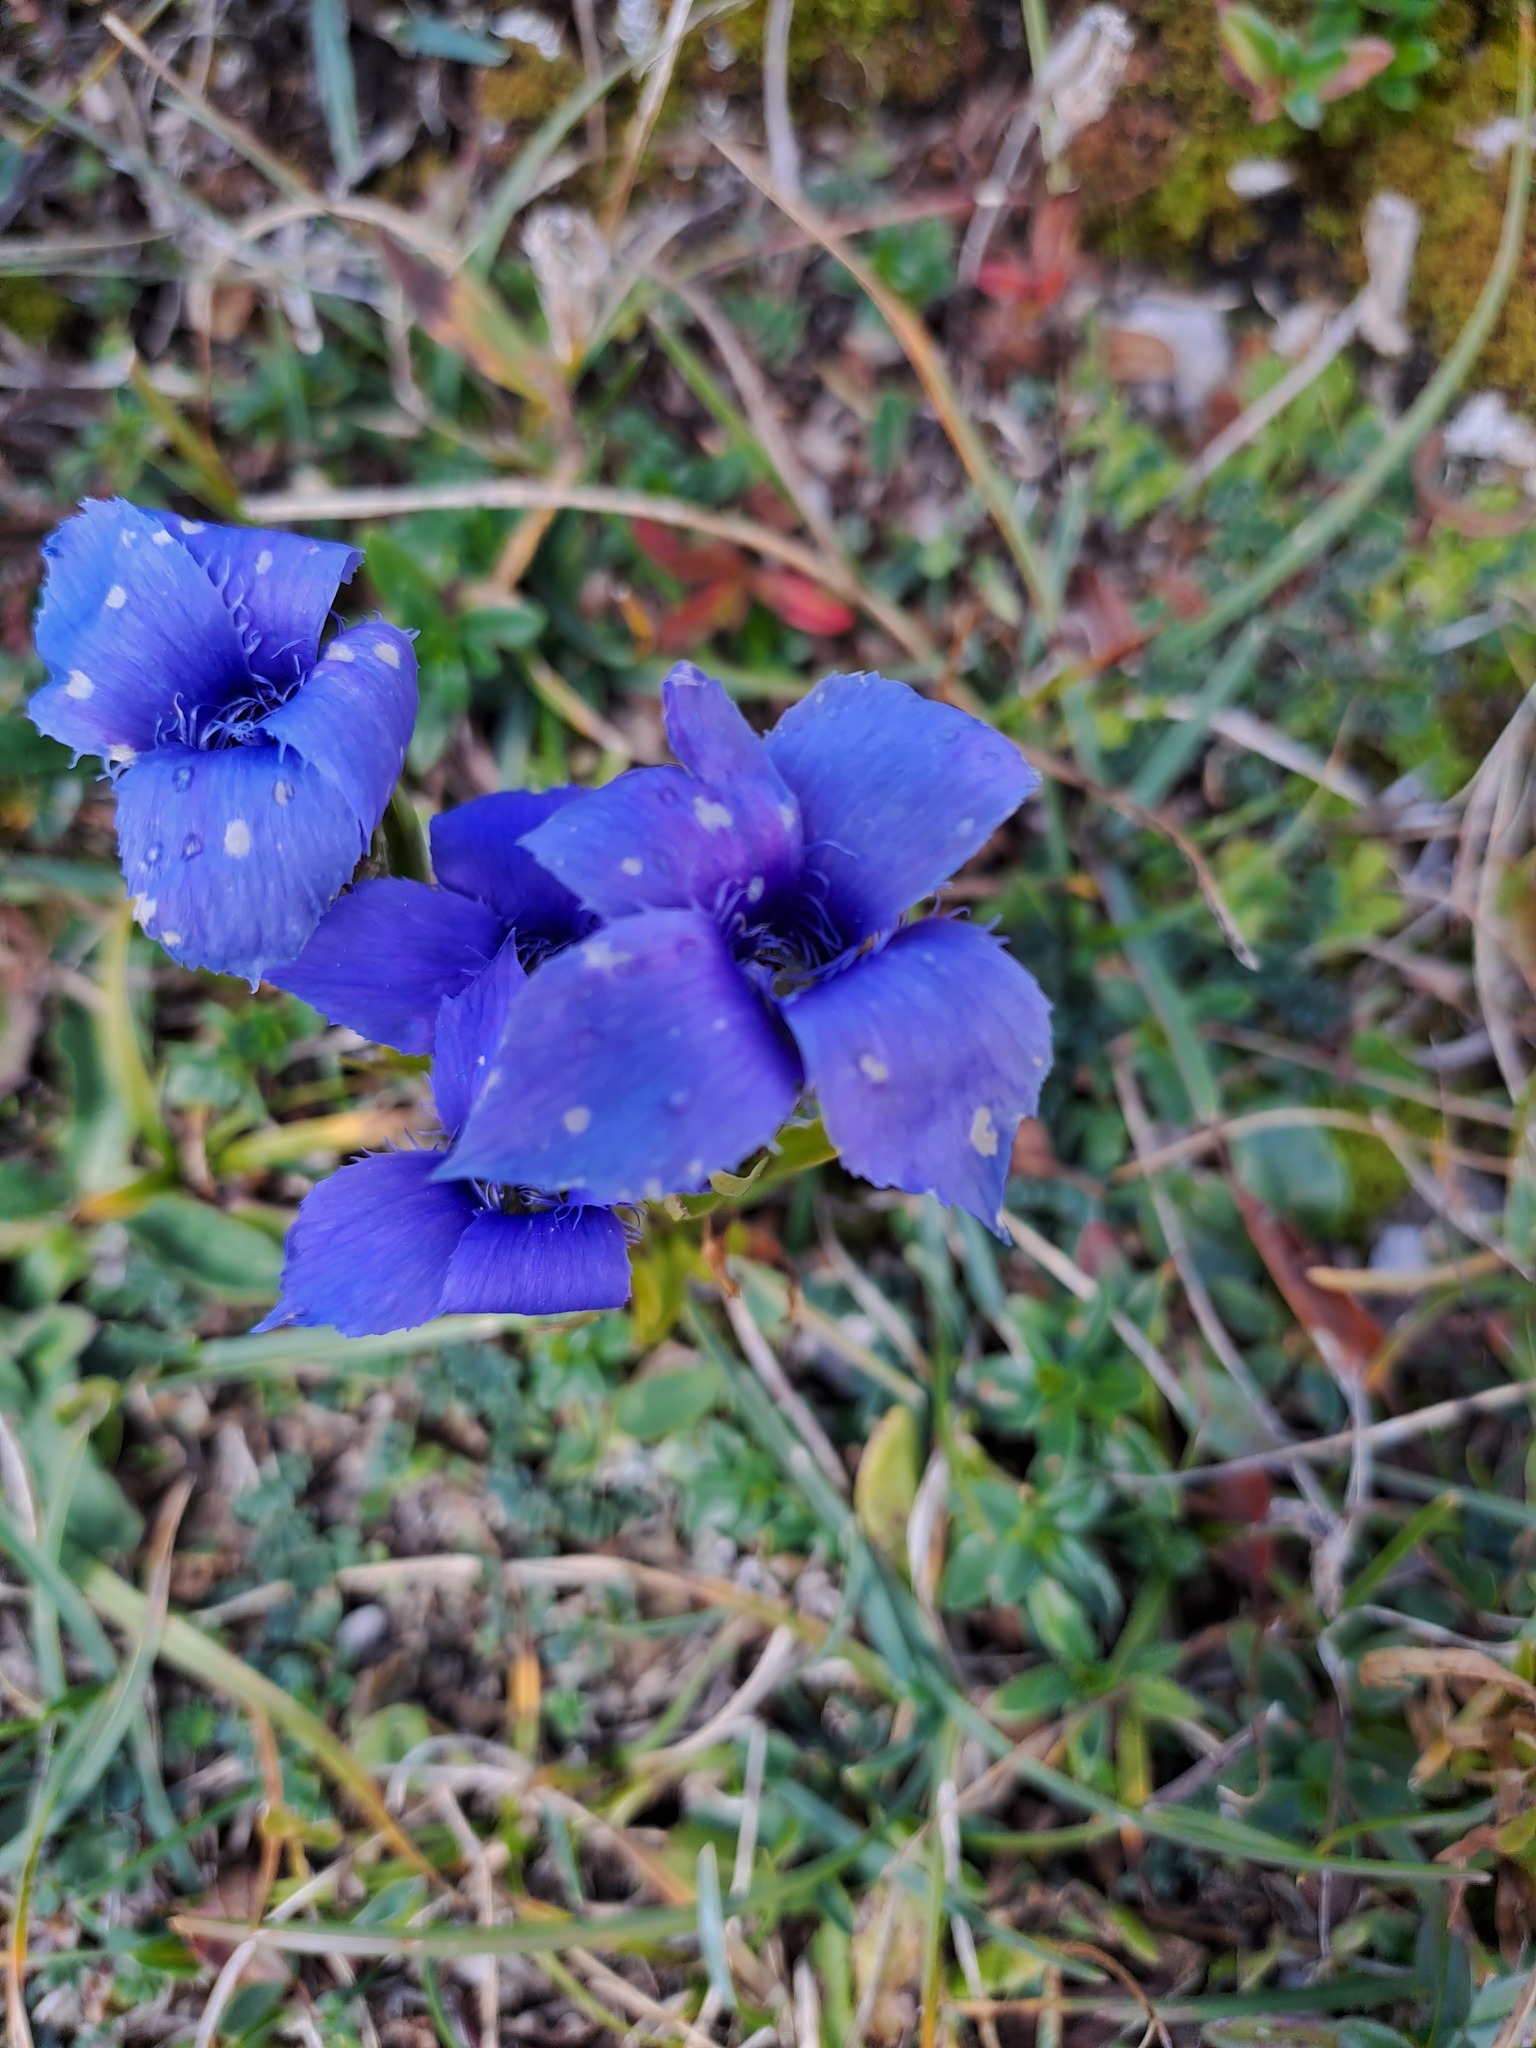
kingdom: Plantae
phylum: Tracheophyta
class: Magnoliopsida
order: Gentianales
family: Gentianaceae
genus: Gentianopsis
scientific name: Gentianopsis ciliata
